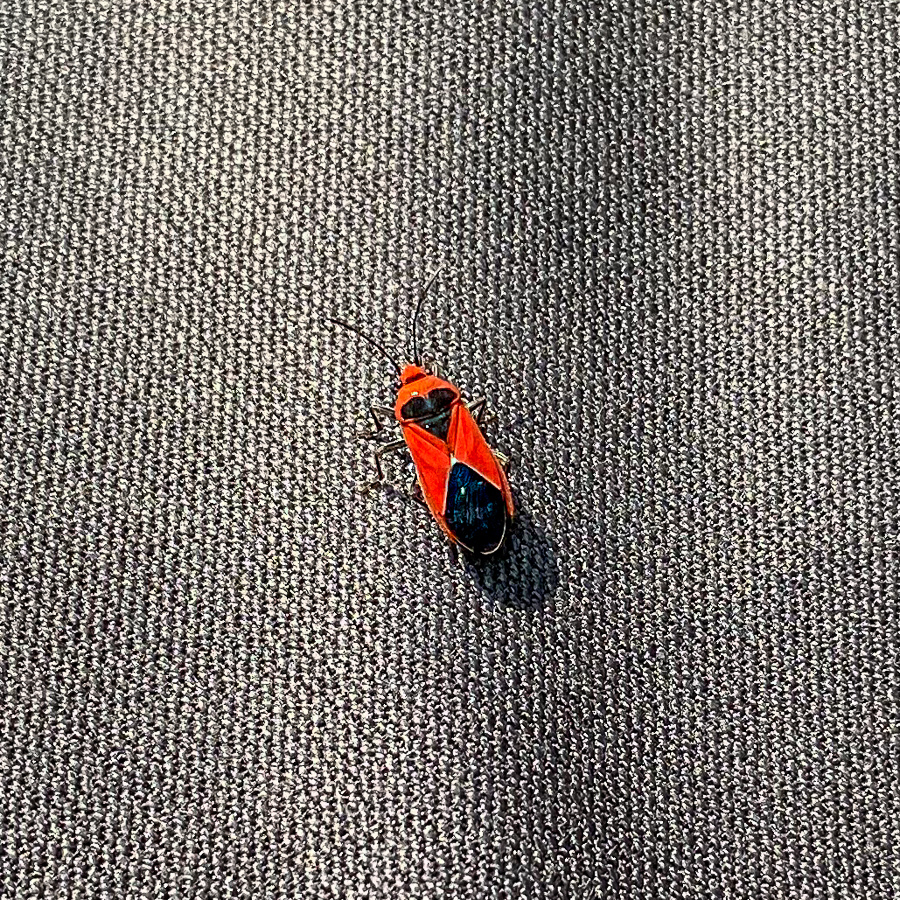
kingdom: Animalia
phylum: Arthropoda
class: Insecta
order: Hemiptera
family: Lygaeidae
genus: Graptostethus
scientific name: Graptostethus incertus
